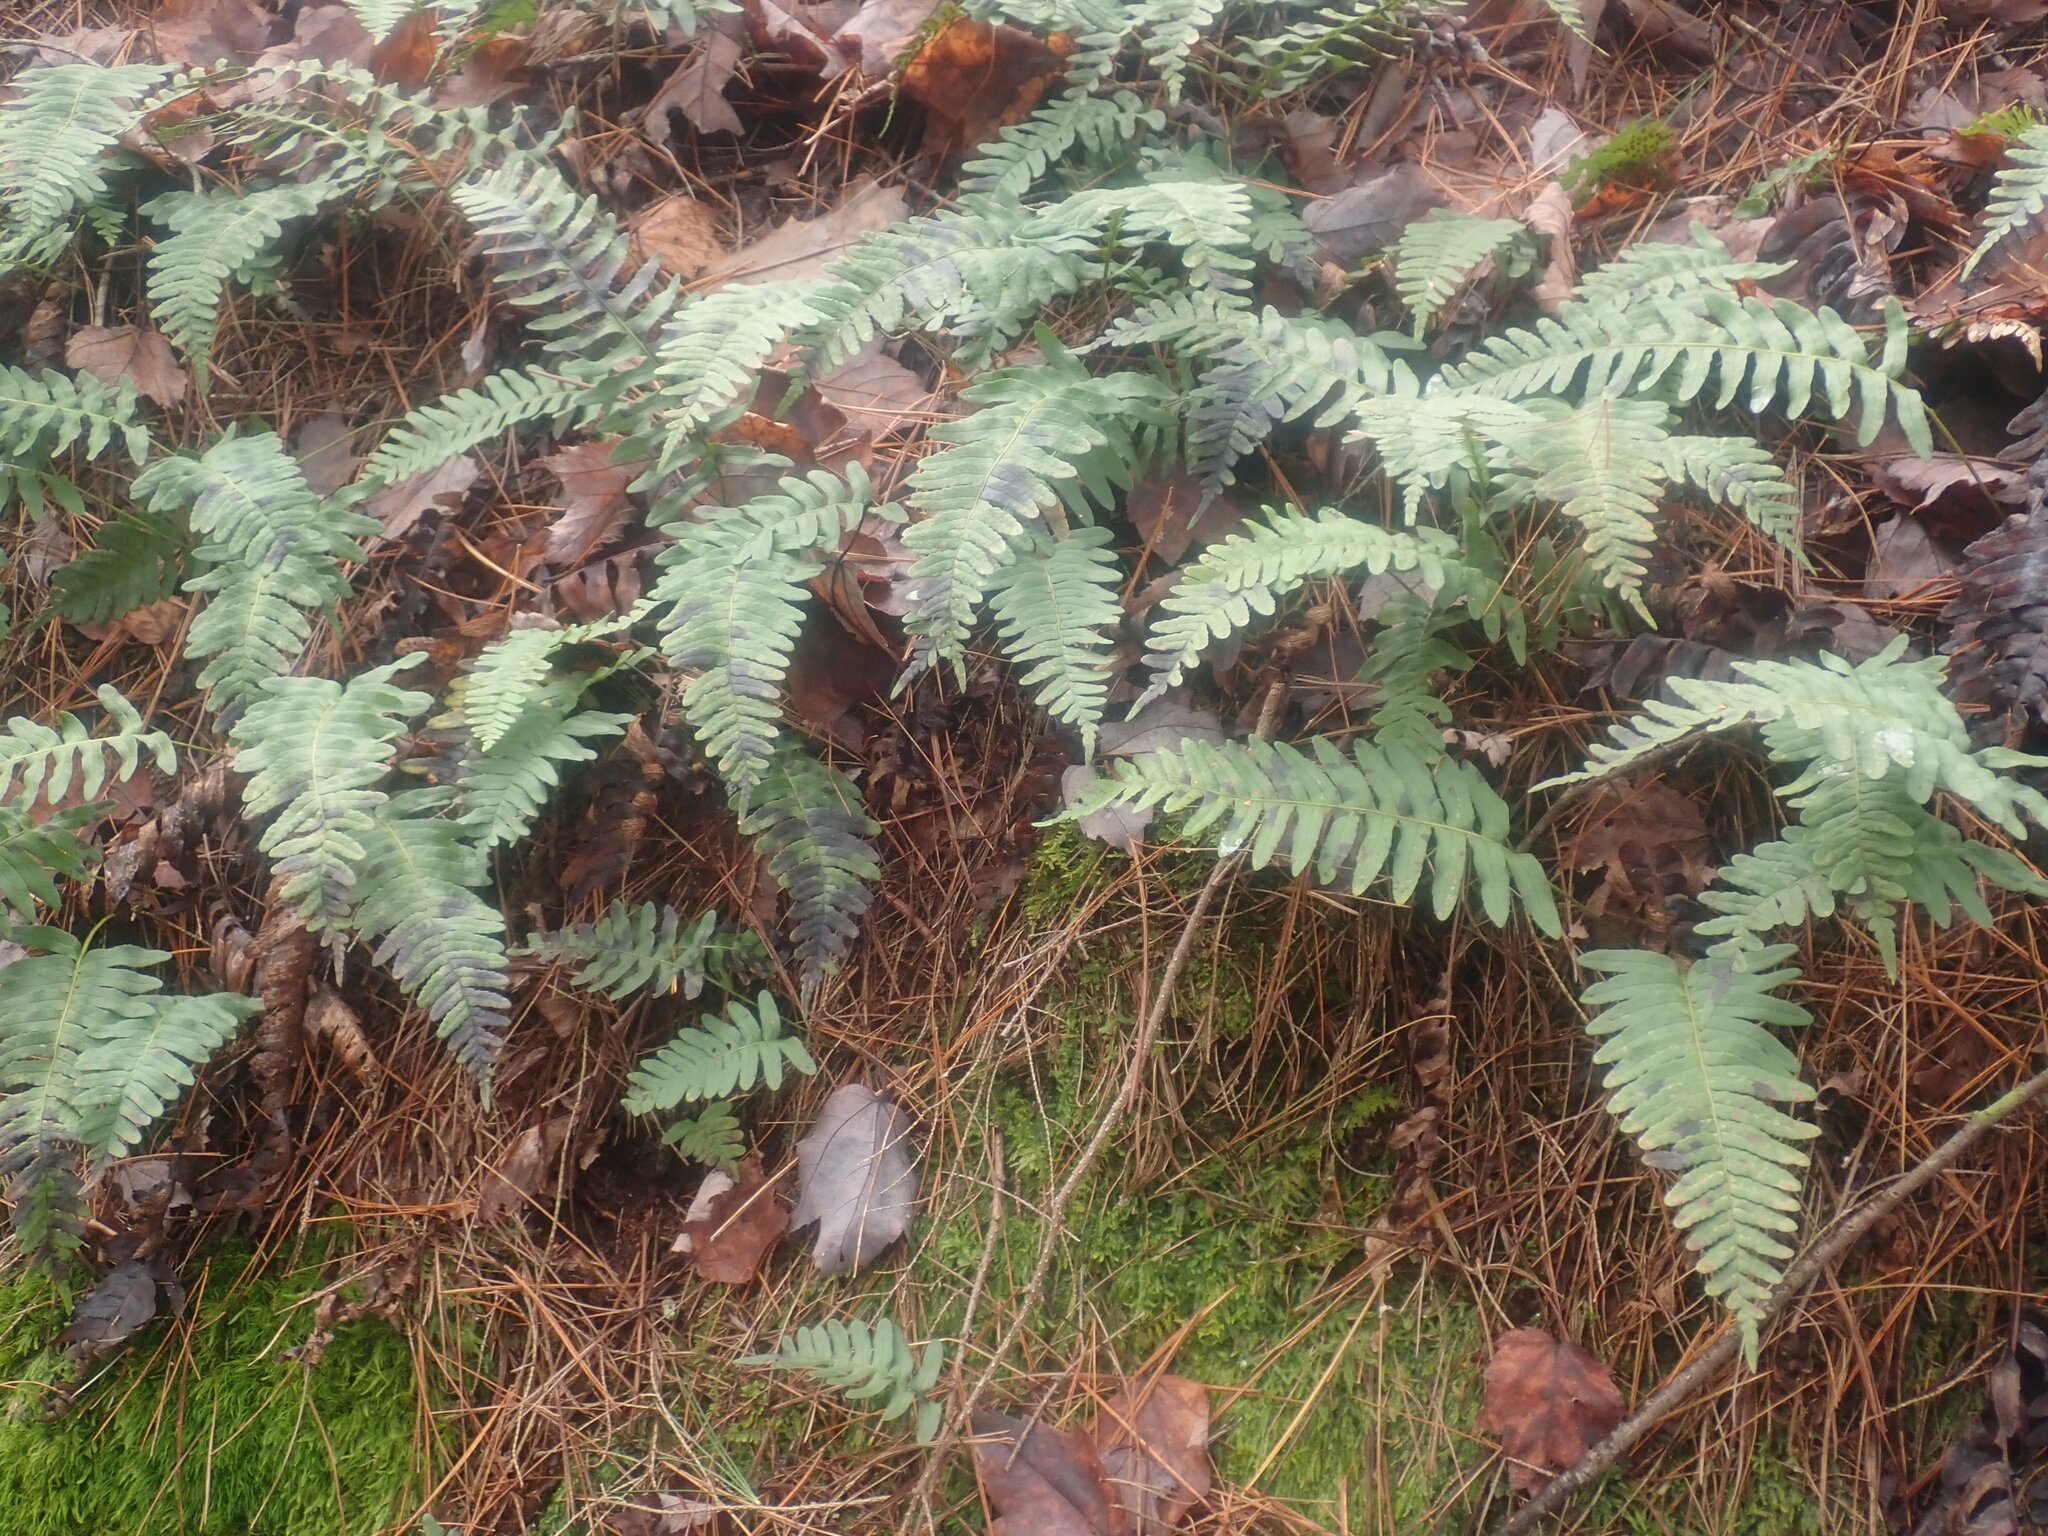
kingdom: Plantae
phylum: Tracheophyta
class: Polypodiopsida
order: Polypodiales
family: Polypodiaceae
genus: Polypodium
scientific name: Polypodium
